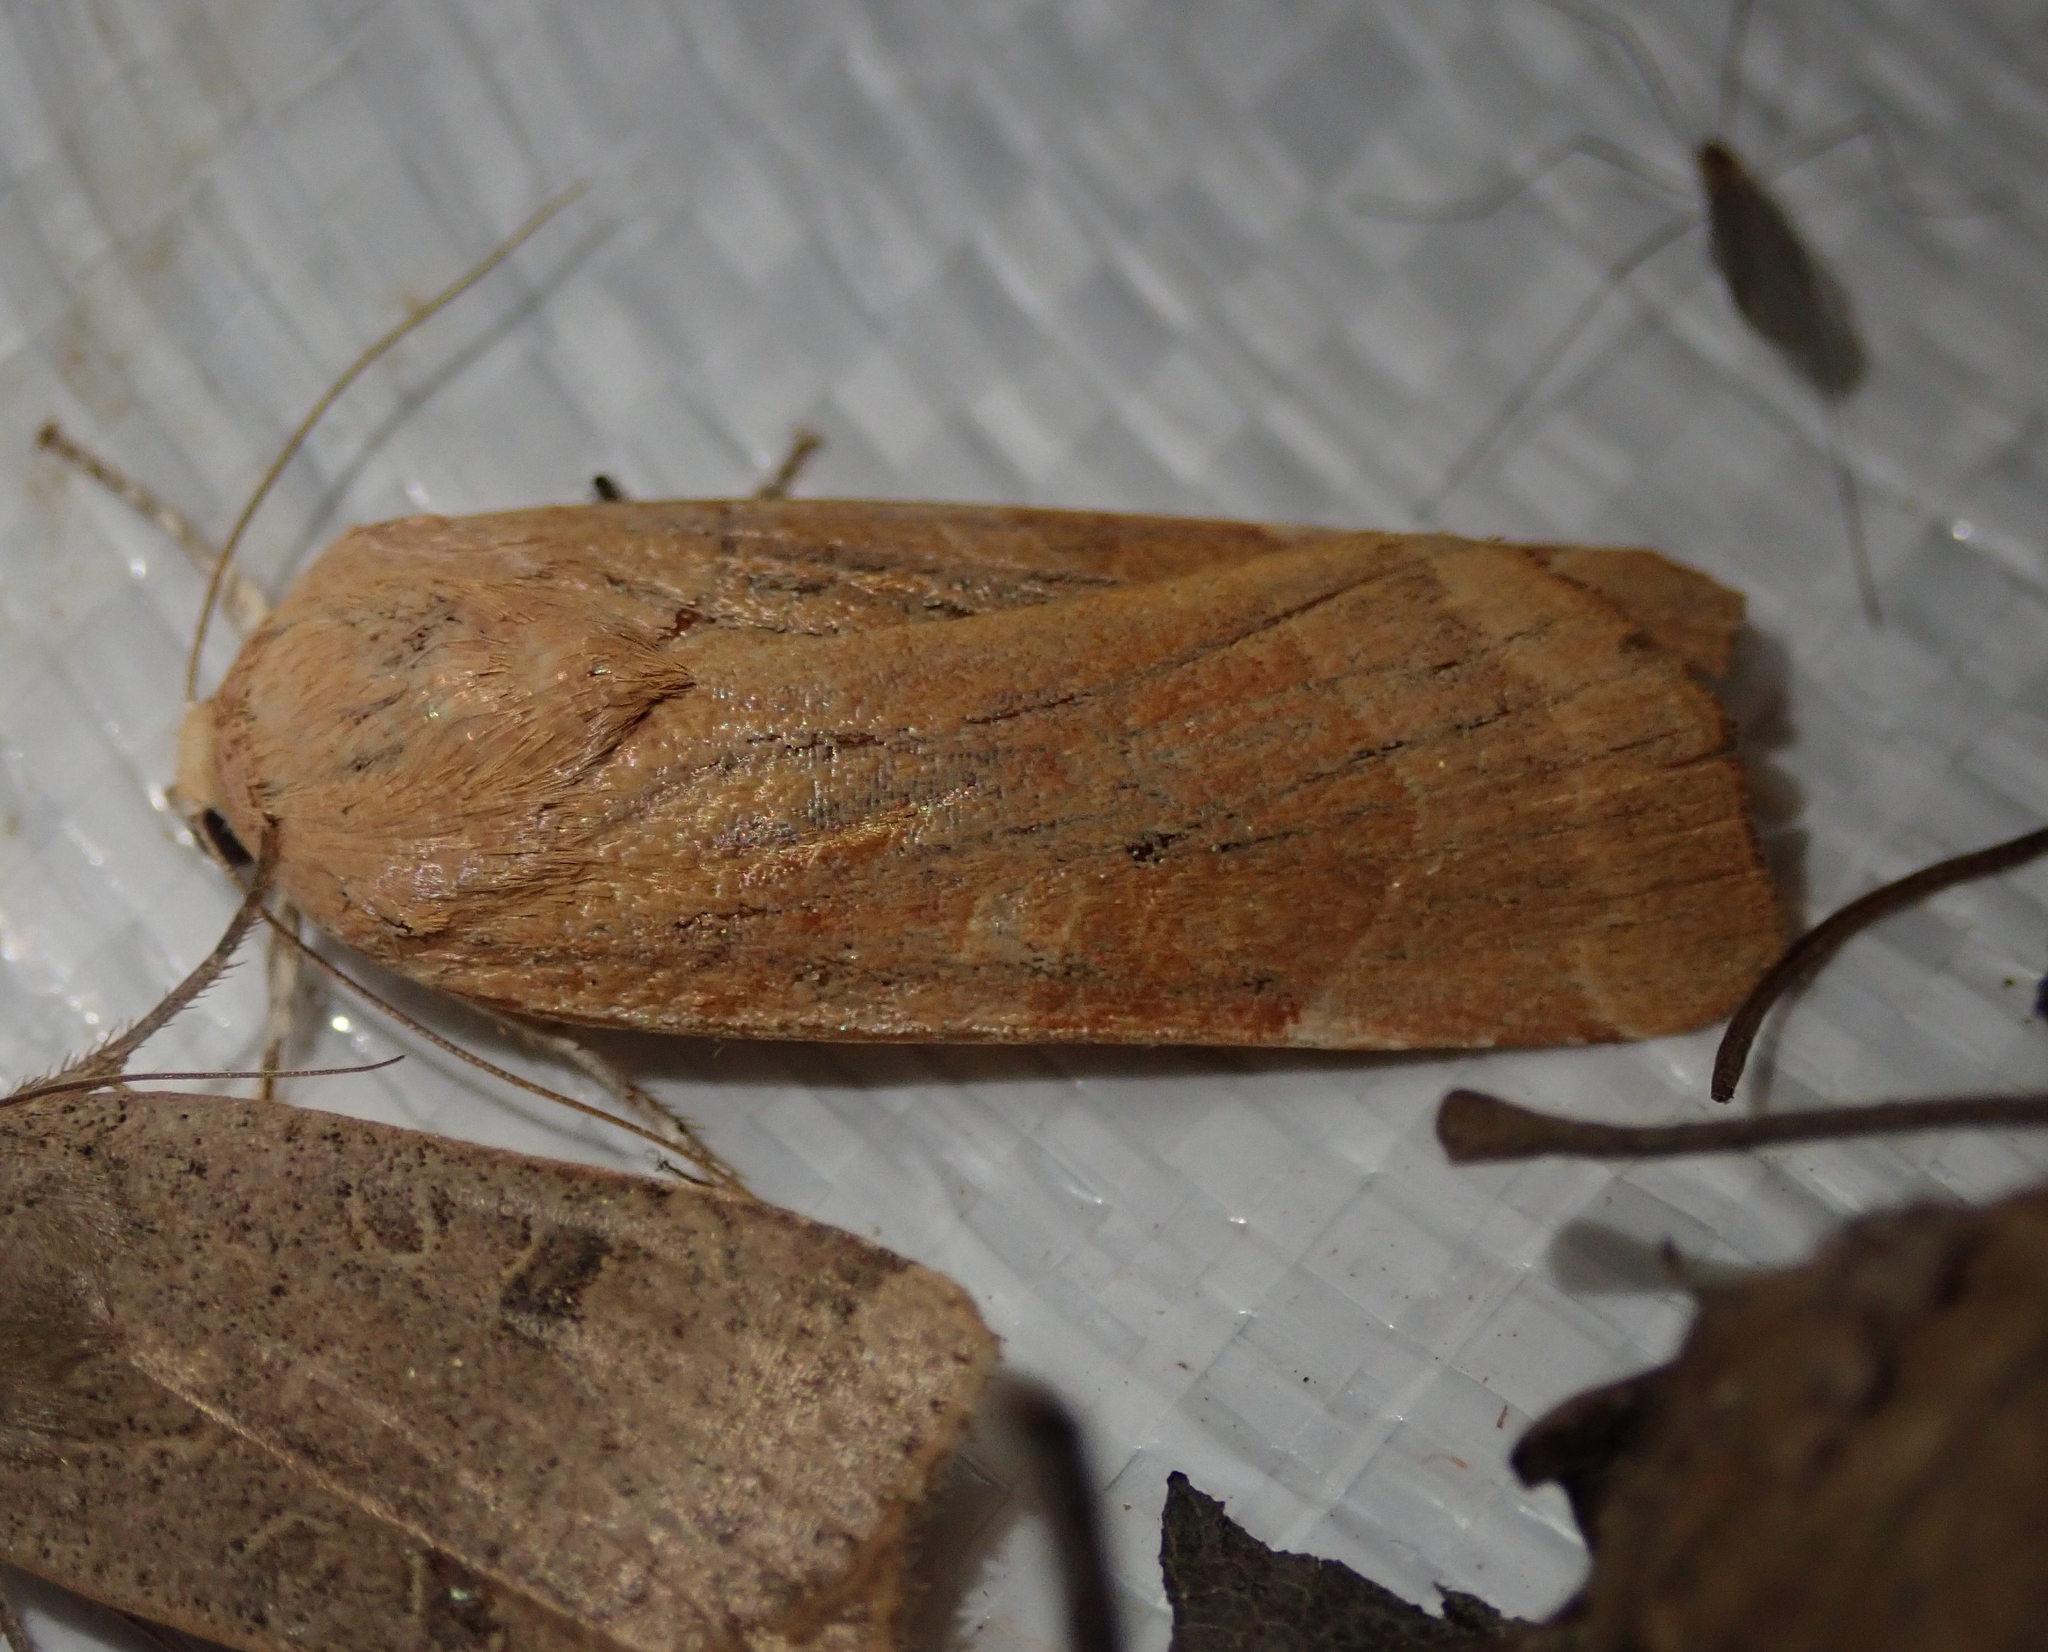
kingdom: Animalia
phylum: Arthropoda
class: Insecta
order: Lepidoptera
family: Noctuidae
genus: Noctua
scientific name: Noctua fimbriata
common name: Broad-bordered yellow underwing
